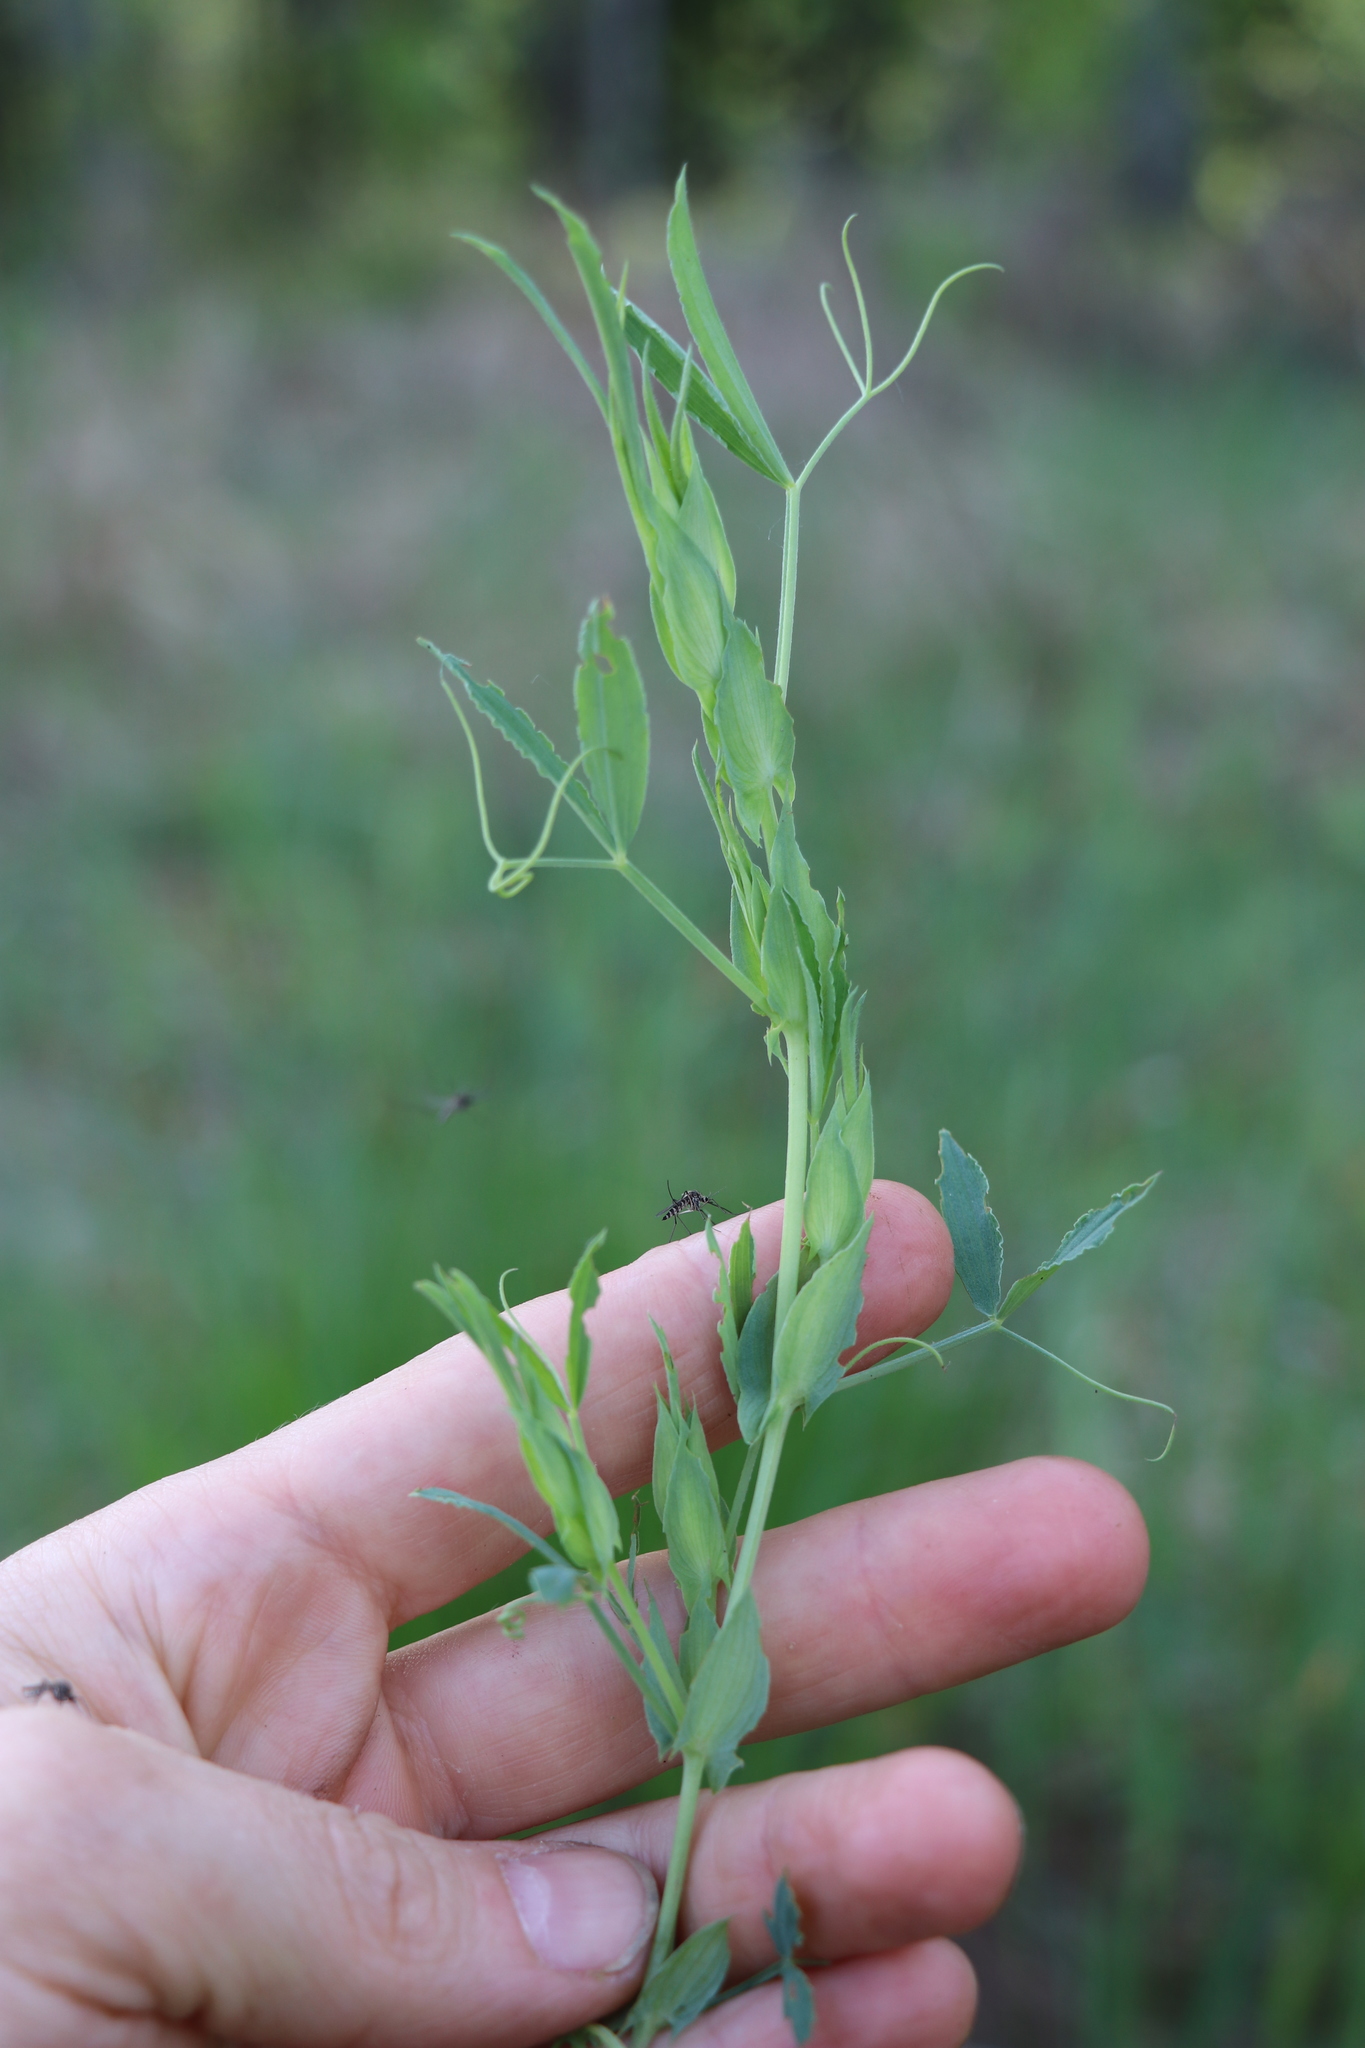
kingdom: Plantae
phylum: Tracheophyta
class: Magnoliopsida
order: Fabales
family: Fabaceae
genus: Lathyrus
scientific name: Lathyrus pratensis
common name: Meadow vetchling
